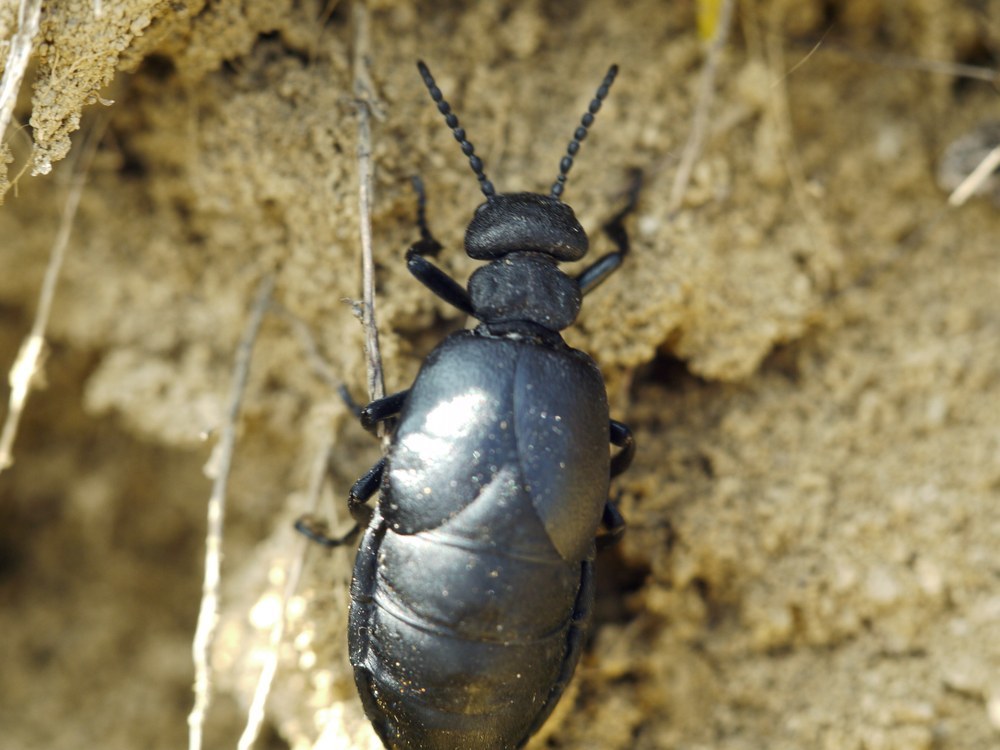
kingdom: Animalia
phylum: Arthropoda
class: Insecta
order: Coleoptera
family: Meloidae
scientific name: Meloidae
